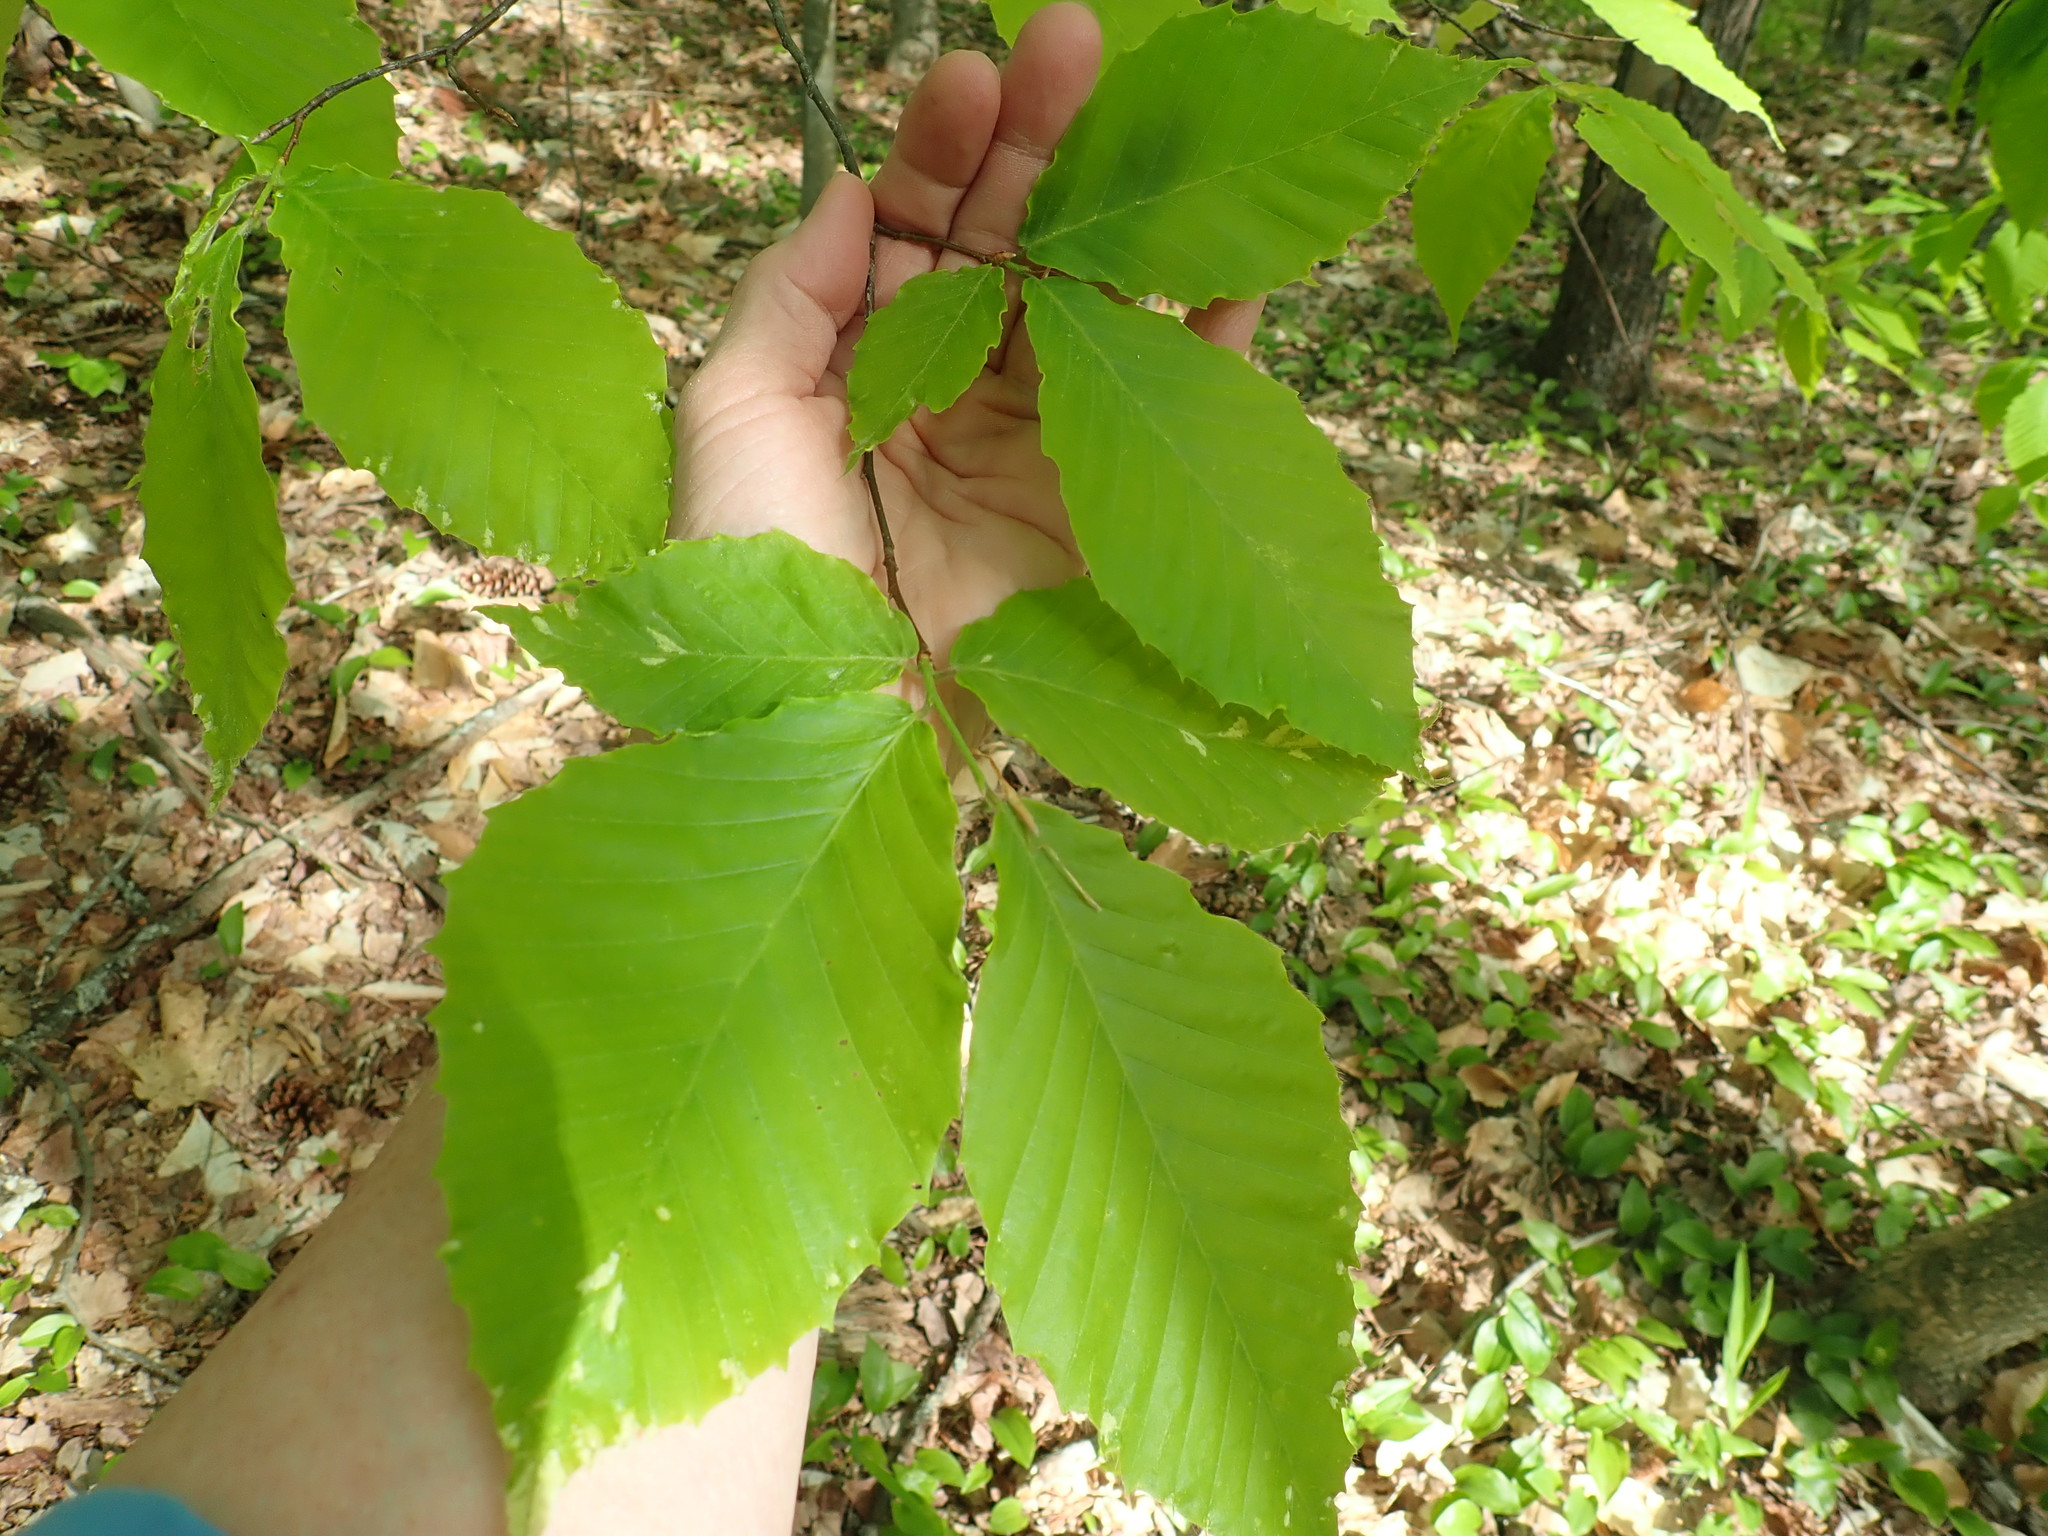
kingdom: Plantae
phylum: Tracheophyta
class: Magnoliopsida
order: Fagales
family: Fagaceae
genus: Fagus
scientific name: Fagus grandifolia
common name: American beech
